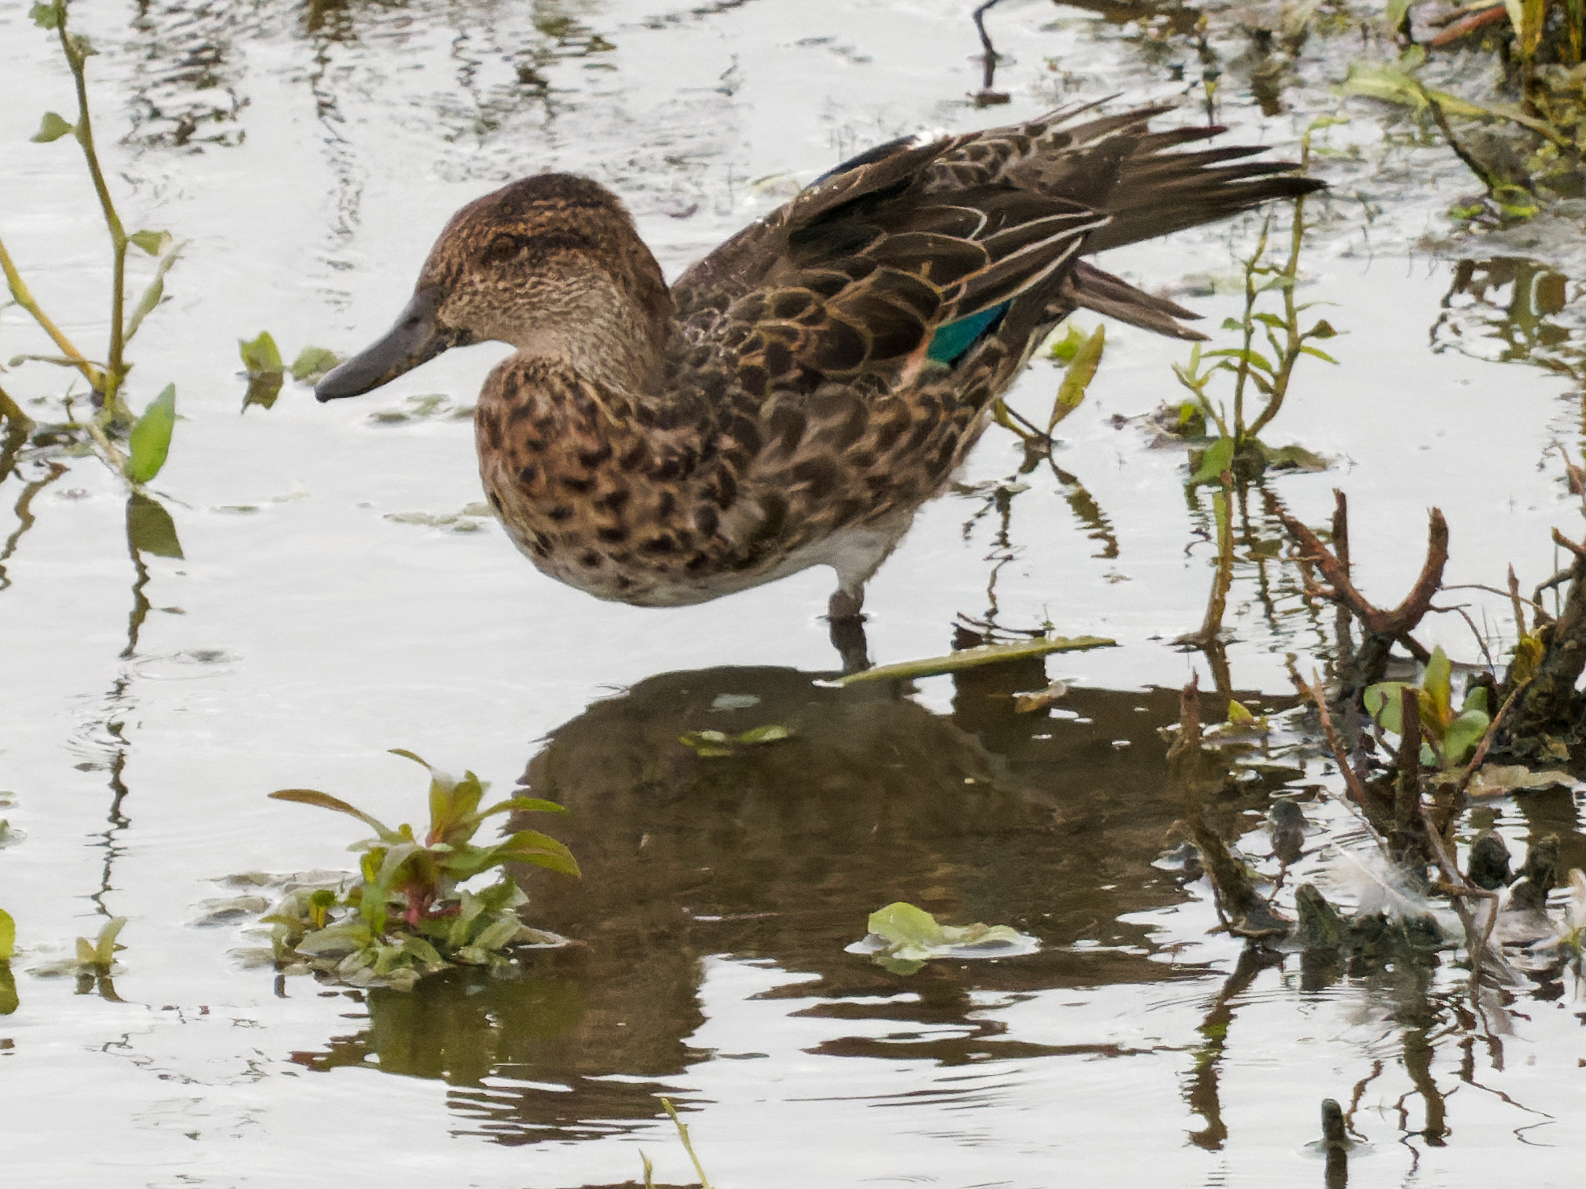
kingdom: Animalia
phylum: Chordata
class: Aves
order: Anseriformes
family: Anatidae
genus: Anas
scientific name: Anas crecca
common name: Eurasian teal
